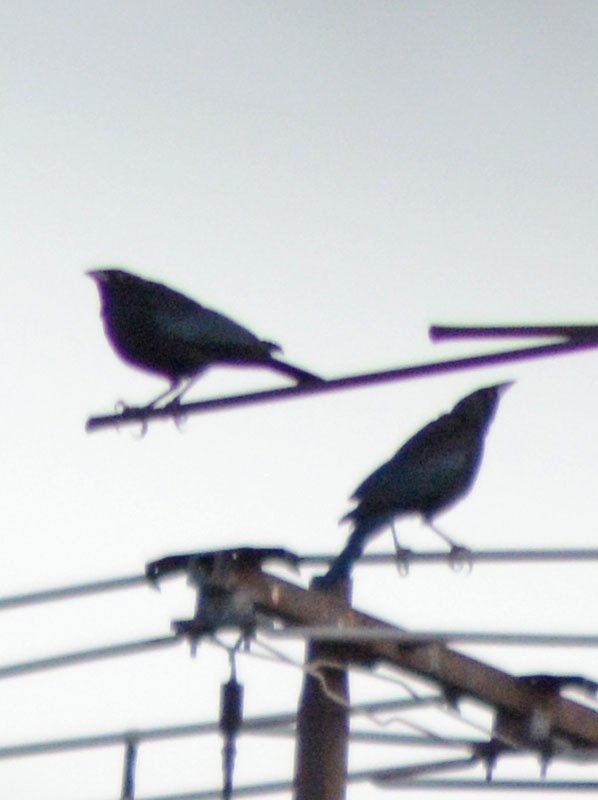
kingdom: Animalia
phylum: Chordata
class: Aves
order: Passeriformes
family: Icteridae
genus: Molothrus
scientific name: Molothrus aeneus
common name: Bronzed cowbird
